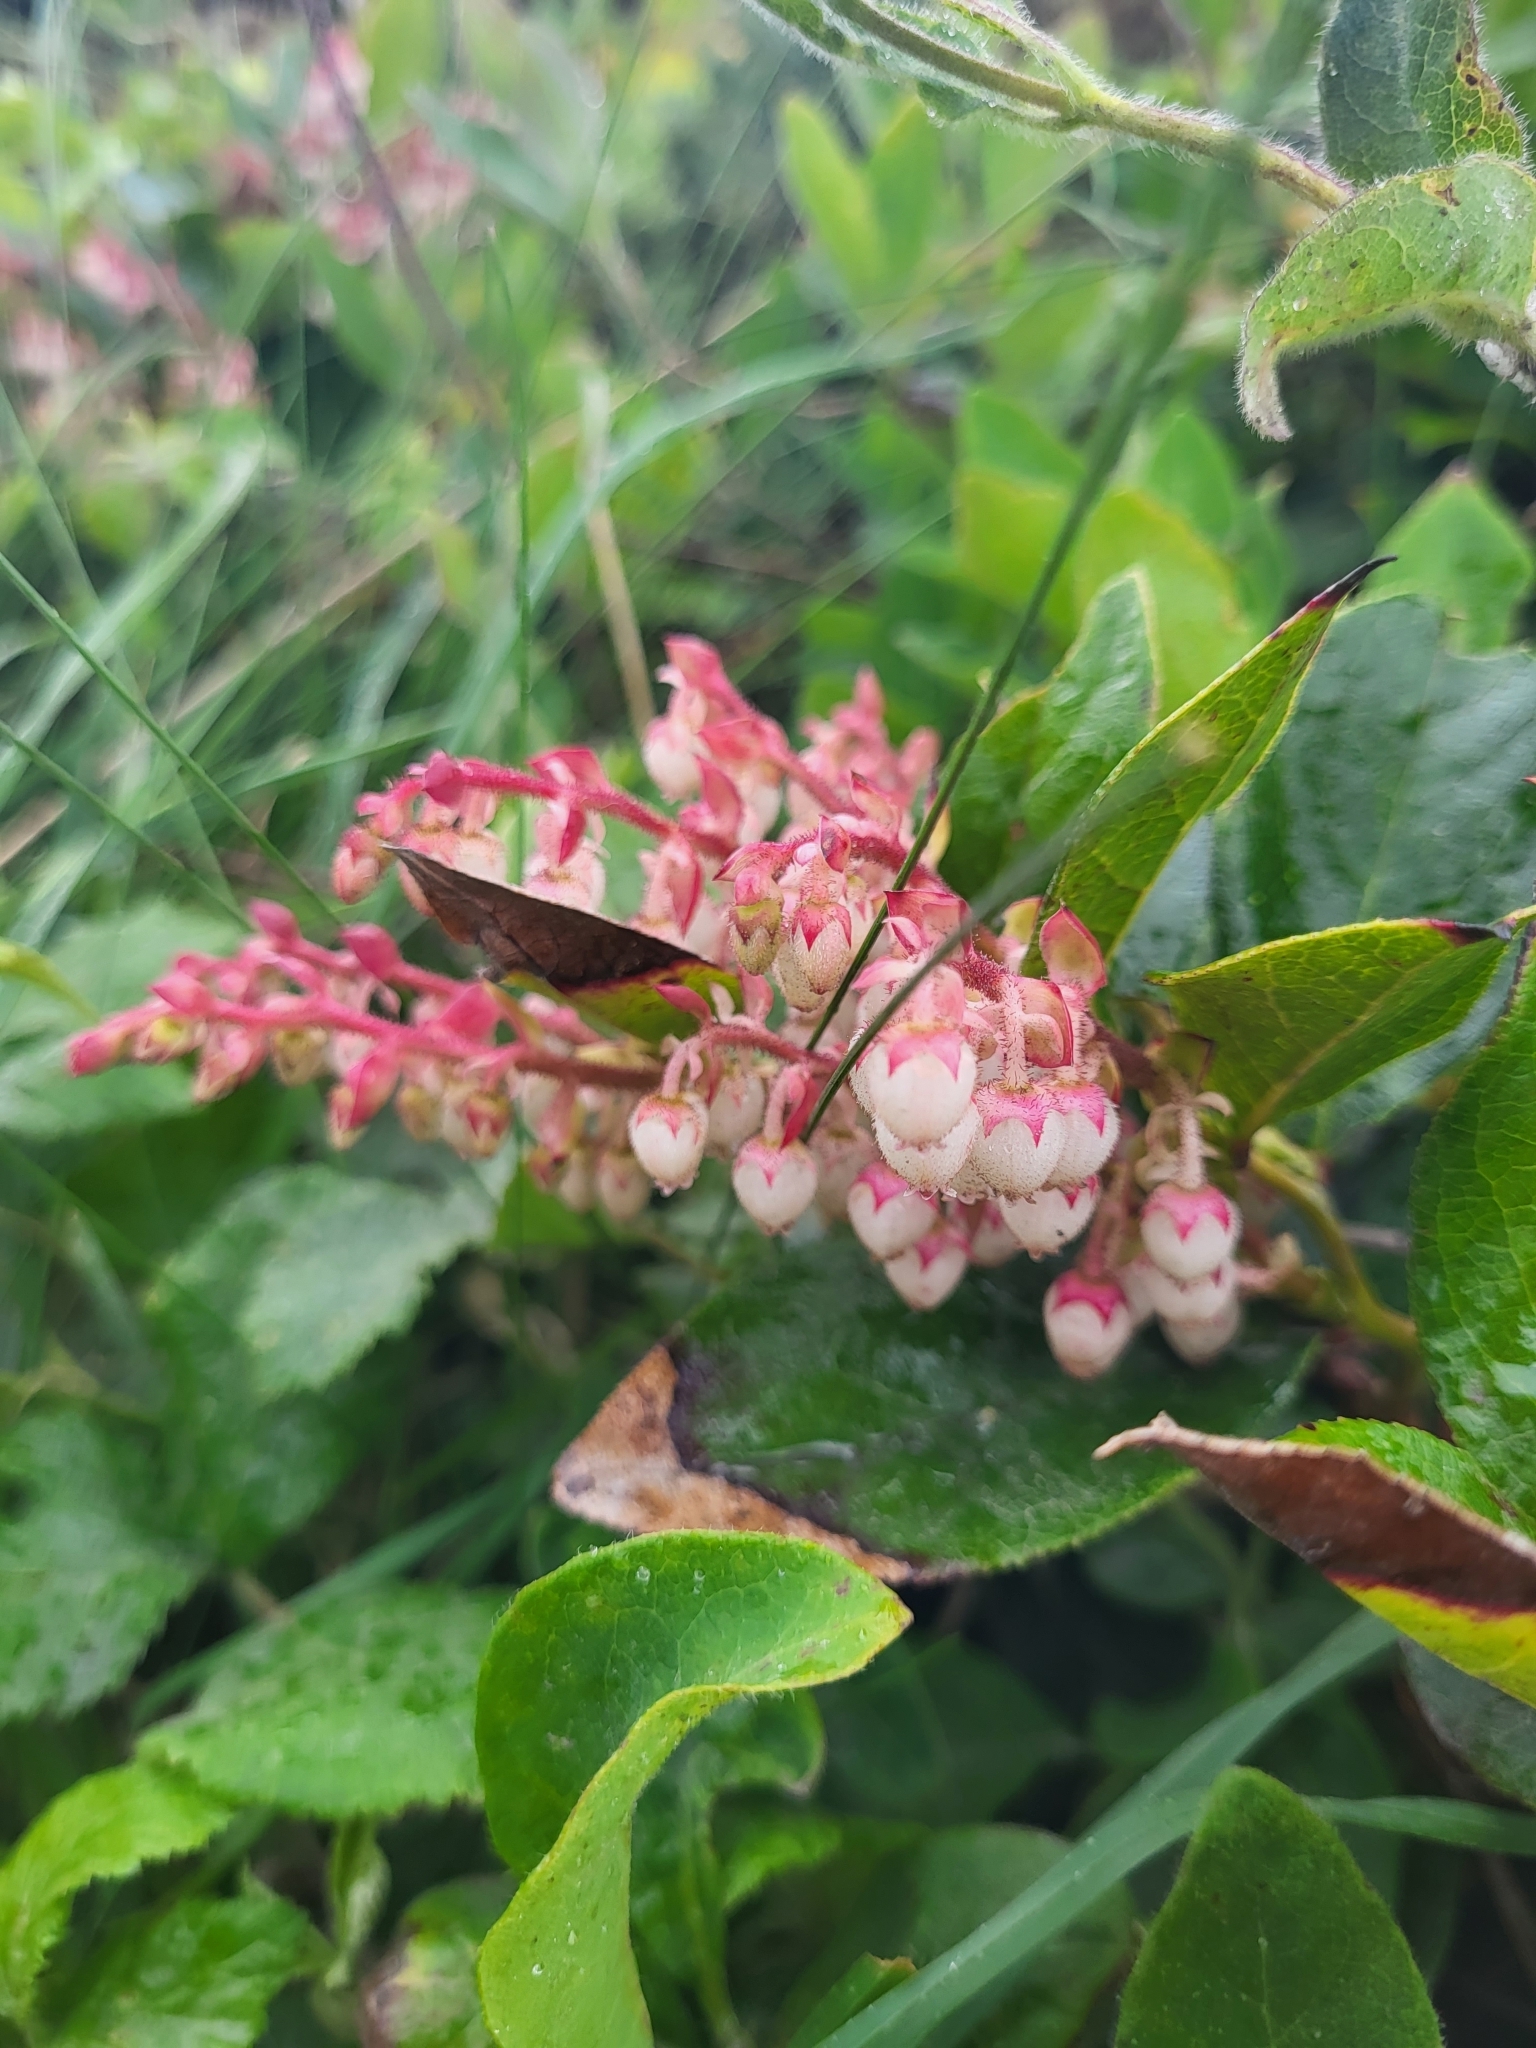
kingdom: Plantae
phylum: Tracheophyta
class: Magnoliopsida
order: Ericales
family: Ericaceae
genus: Gaultheria
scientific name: Gaultheria shallon
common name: Shallon
